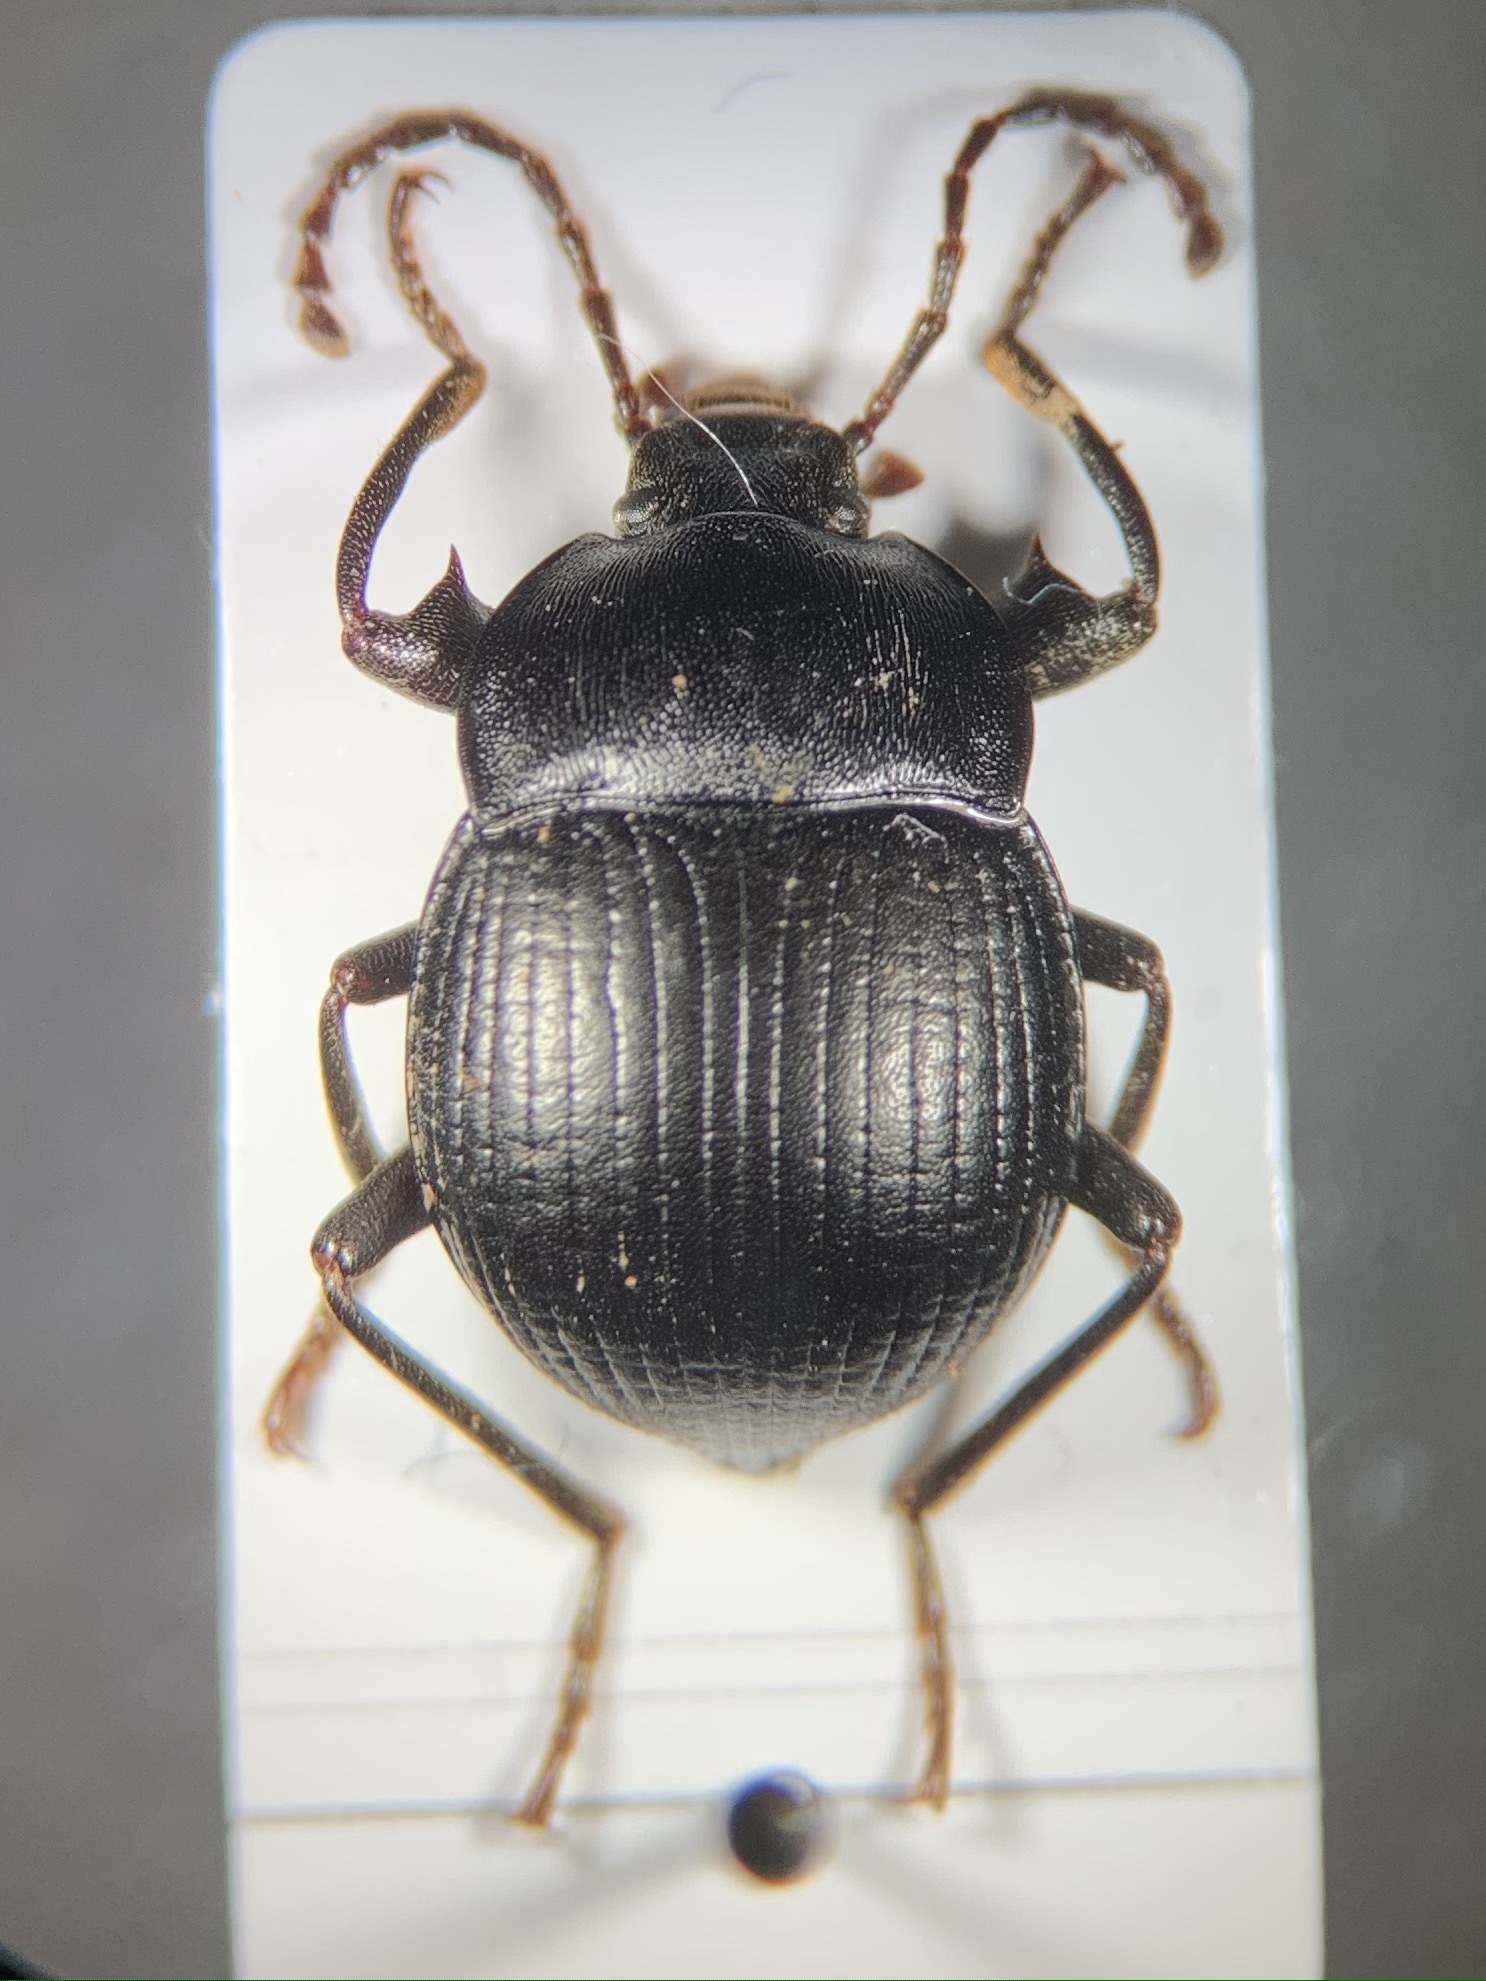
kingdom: Animalia
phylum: Arthropoda
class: Insecta
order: Coleoptera
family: Tenebrionidae
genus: Accanthopus
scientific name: Accanthopus velikensis
